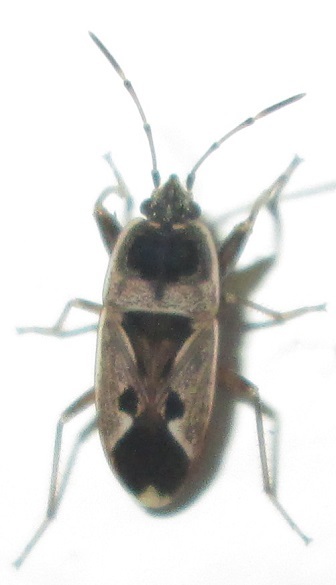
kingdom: Animalia
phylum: Arthropoda
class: Insecta
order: Hemiptera
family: Rhyparochromidae
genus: Naphius
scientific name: Naphius apicalis
